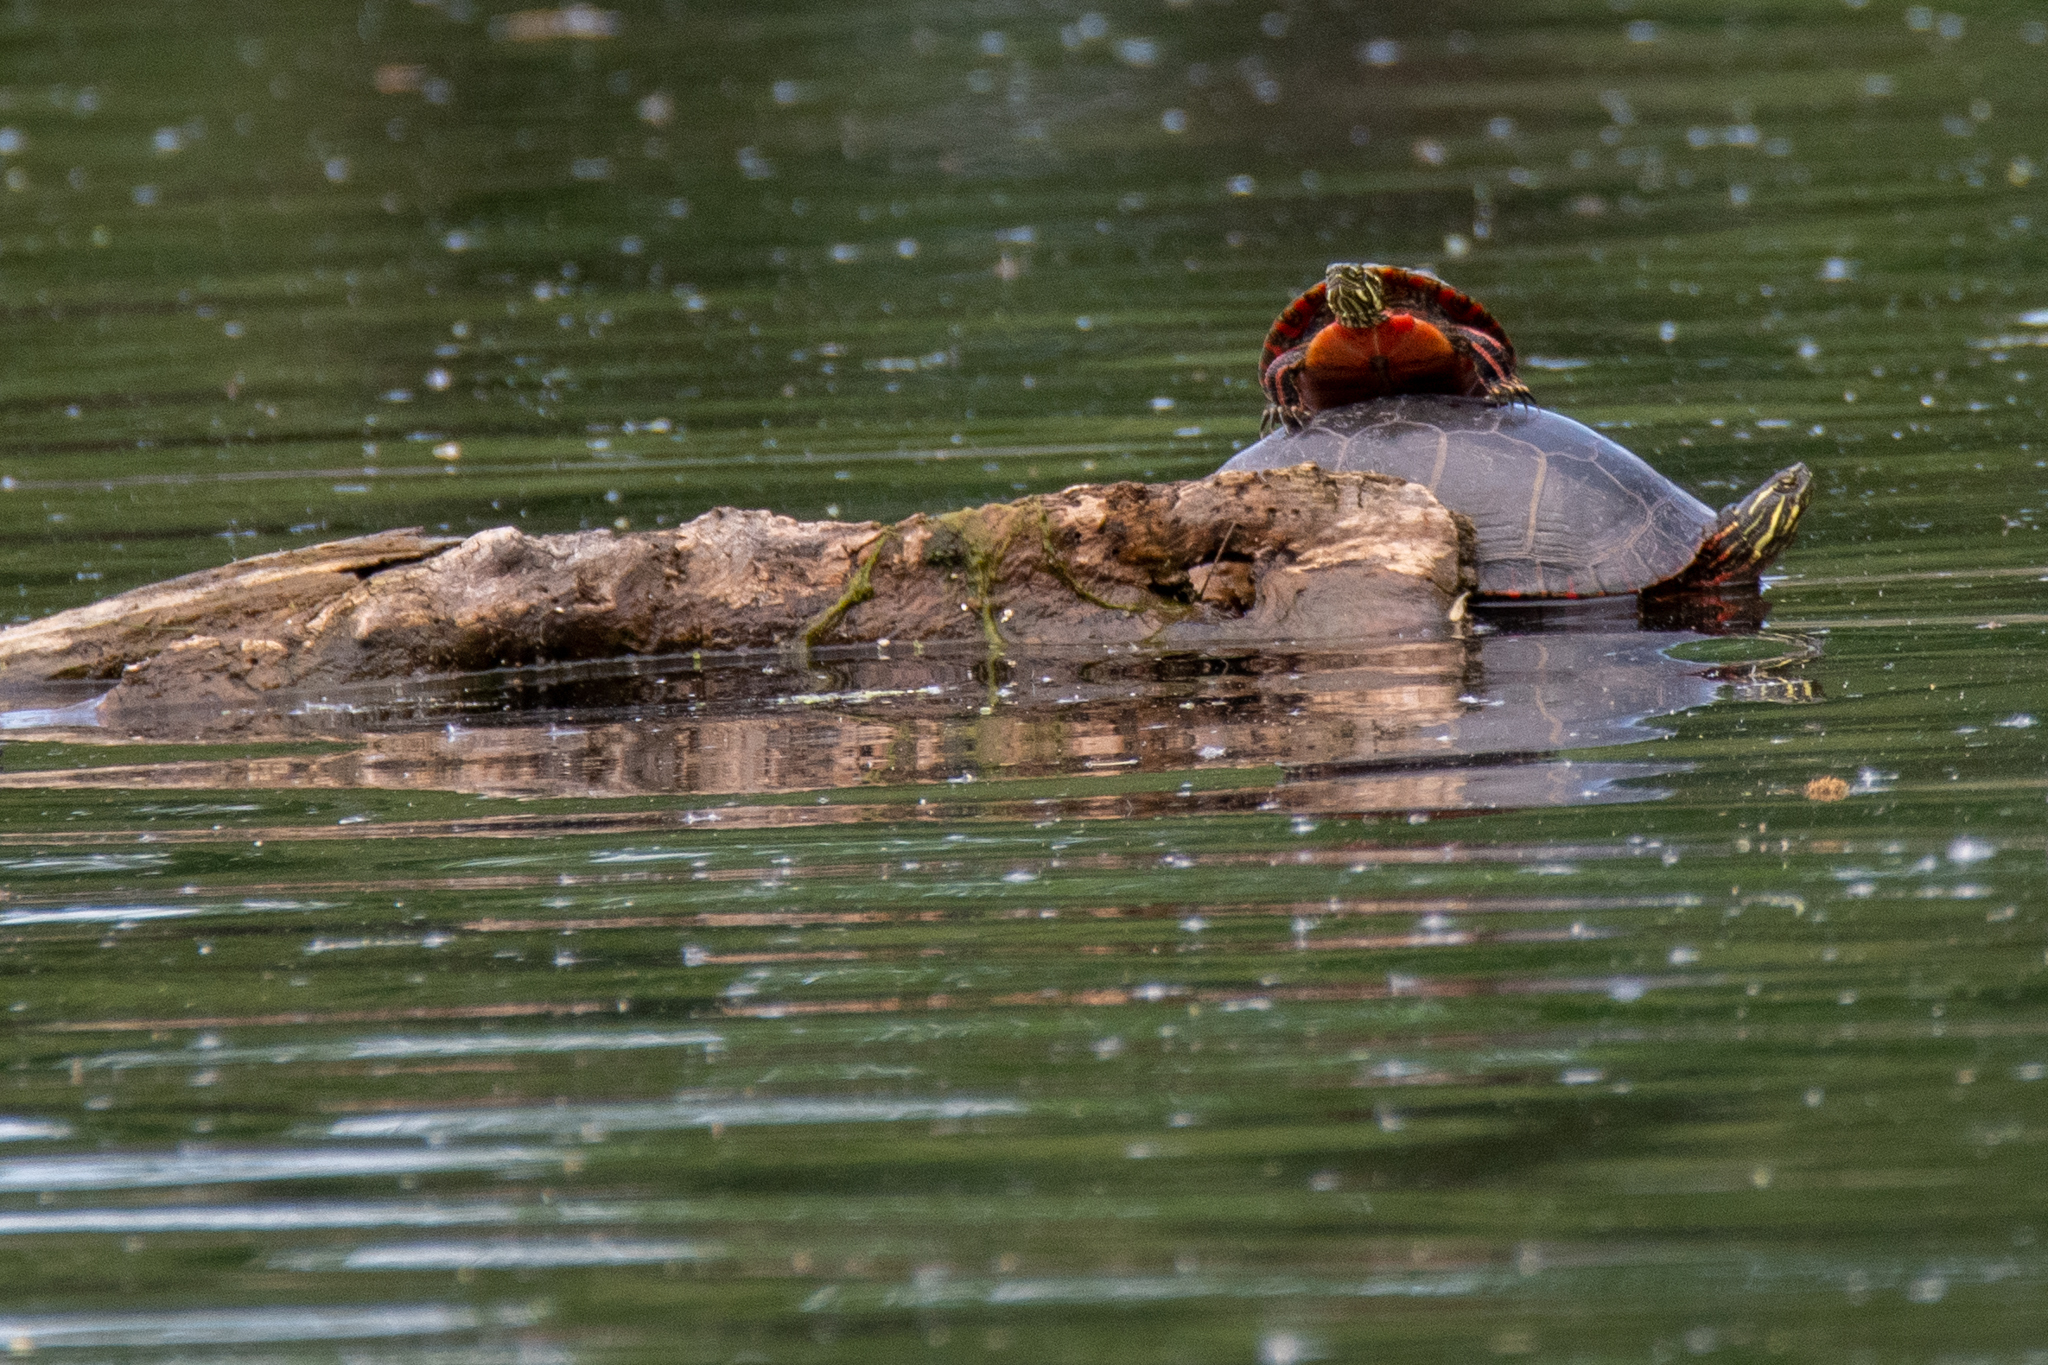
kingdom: Animalia
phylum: Chordata
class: Testudines
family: Emydidae
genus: Chrysemys
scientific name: Chrysemys picta
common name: Painted turtle
